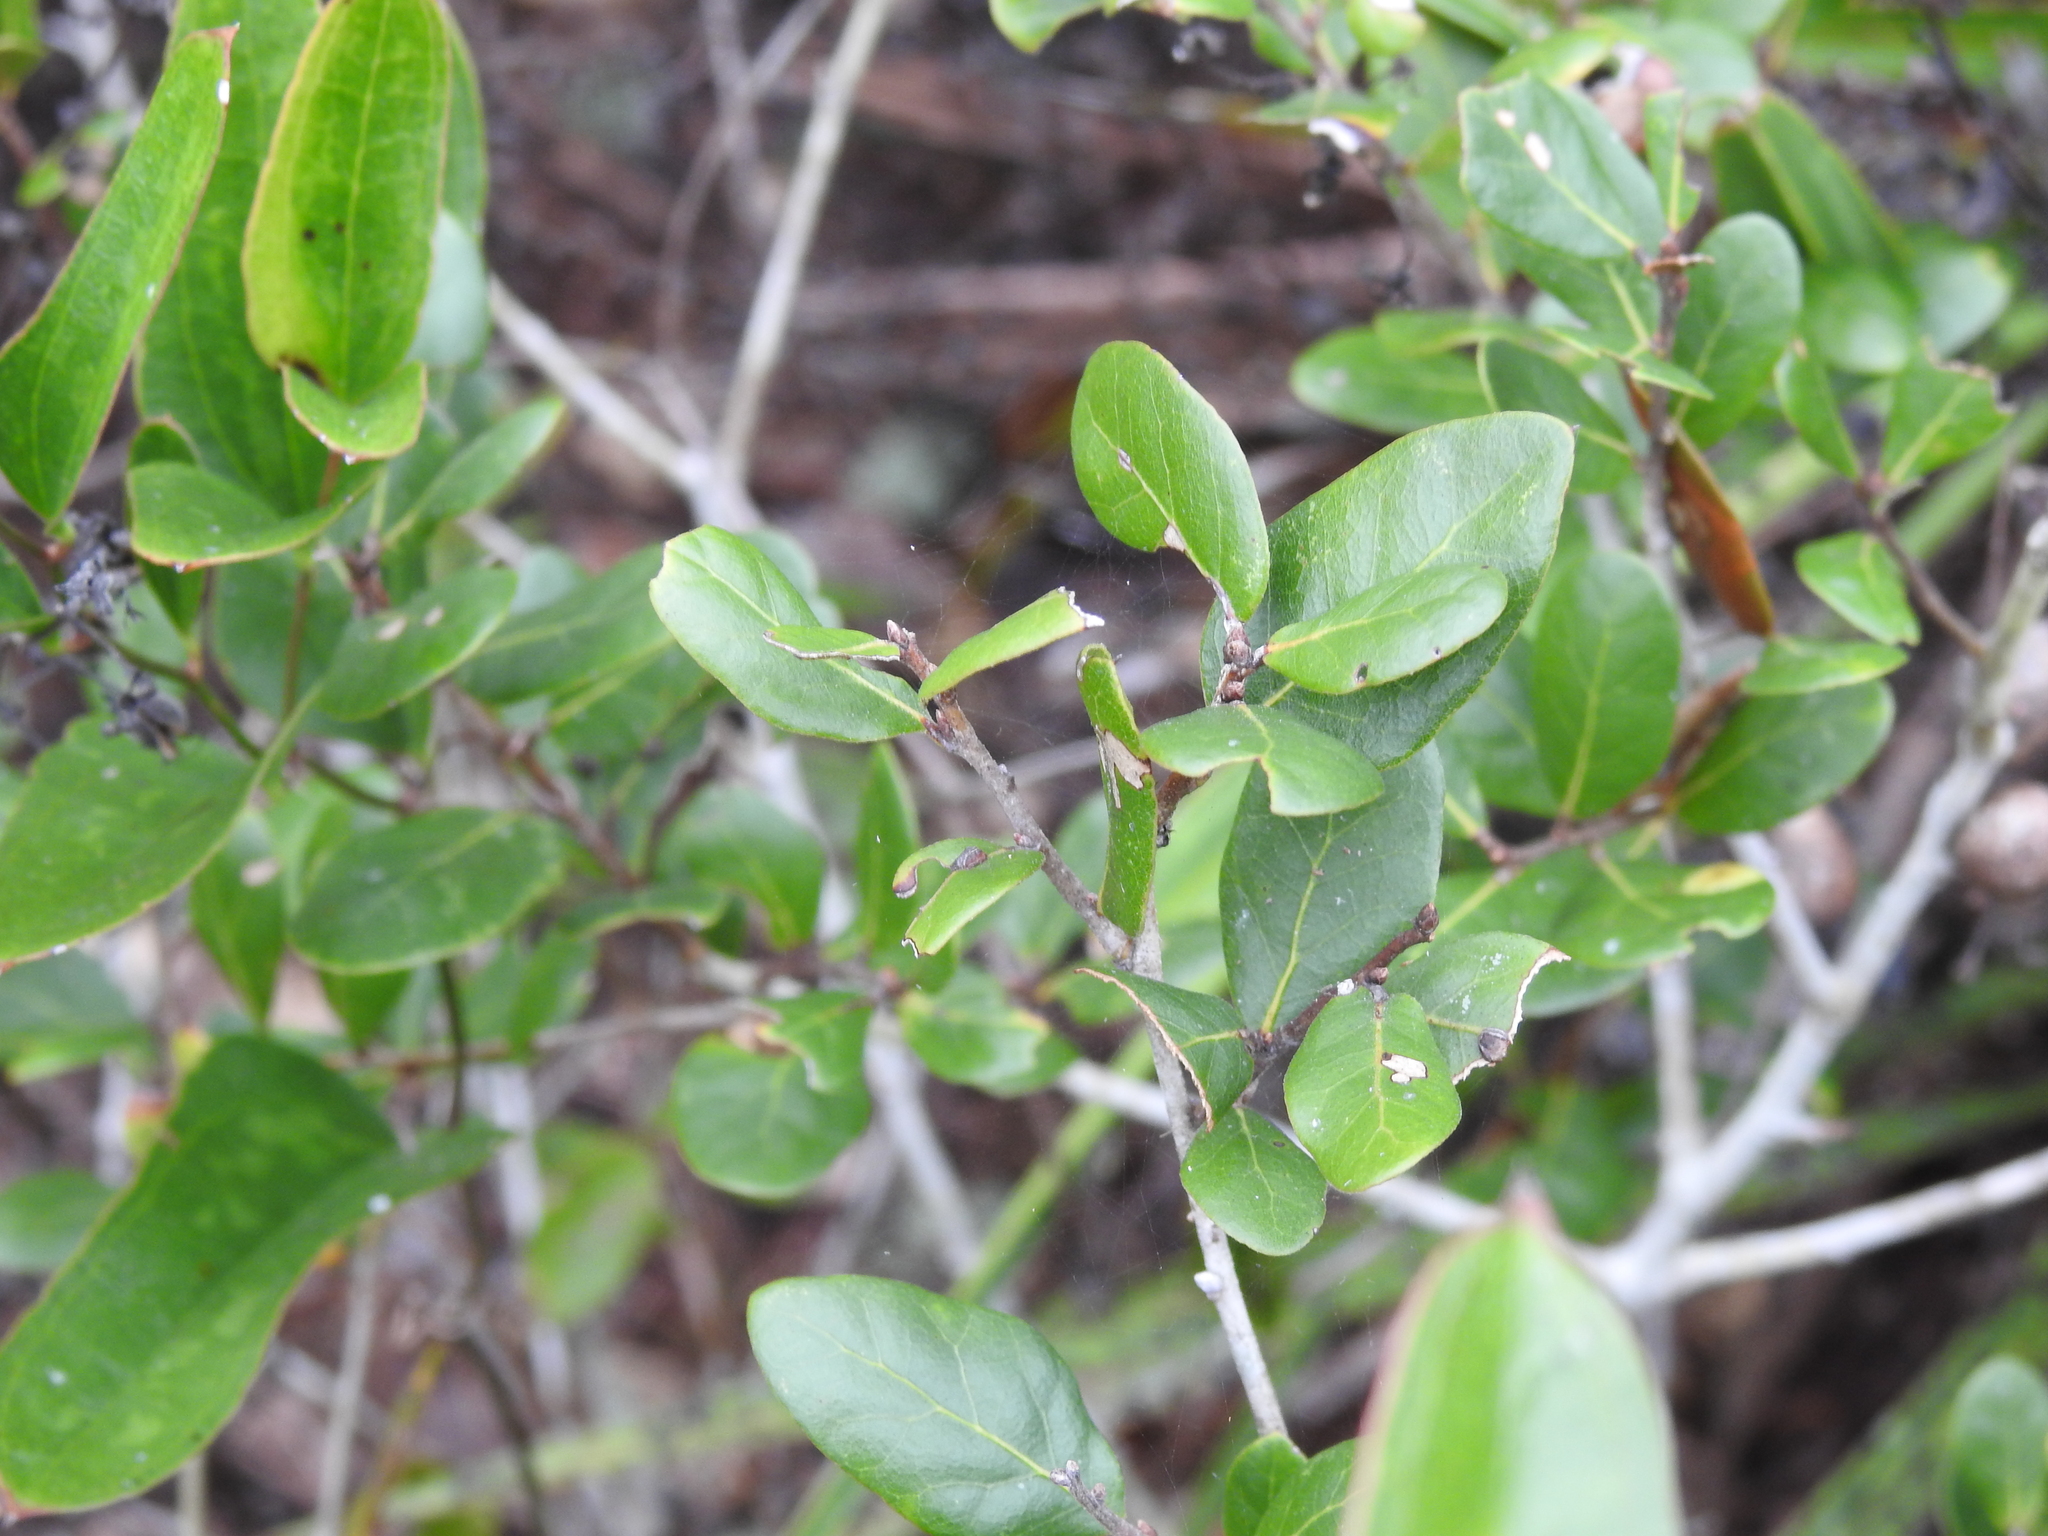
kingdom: Plantae
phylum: Tracheophyta
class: Magnoliopsida
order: Fagales
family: Fagaceae
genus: Quercus
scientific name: Quercus myrtifolia
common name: Myrtle oak
